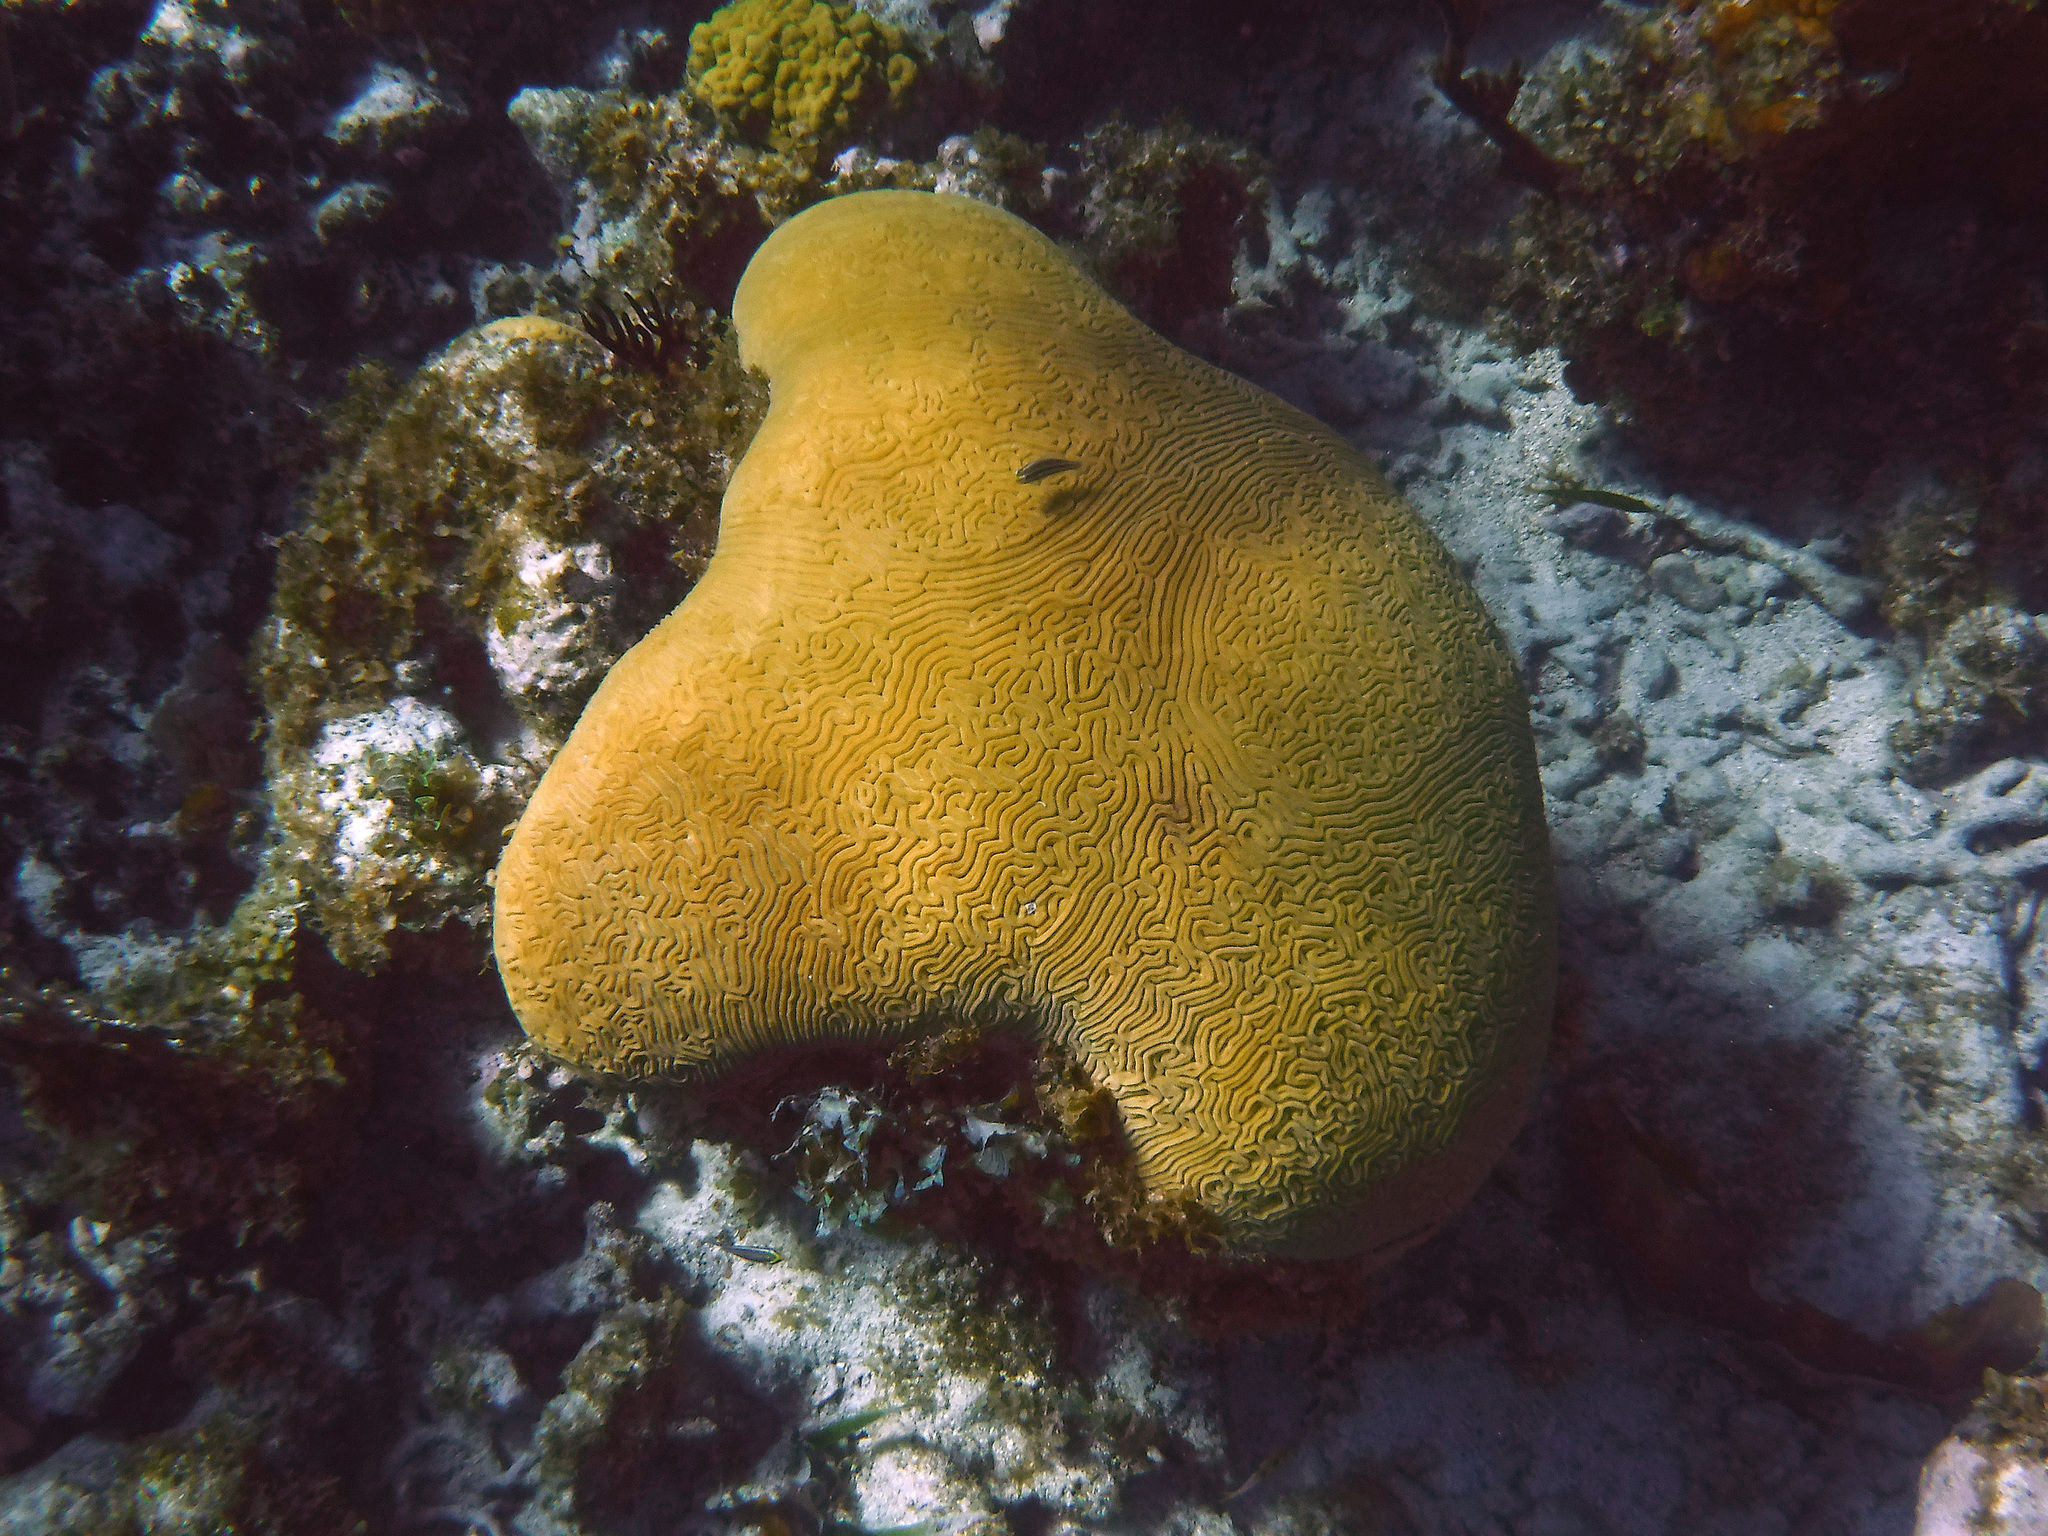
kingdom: Animalia
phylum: Cnidaria
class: Anthozoa
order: Scleractinia
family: Faviidae
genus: Diploria
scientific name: Diploria labyrinthiformis
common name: Grooved brain coral
